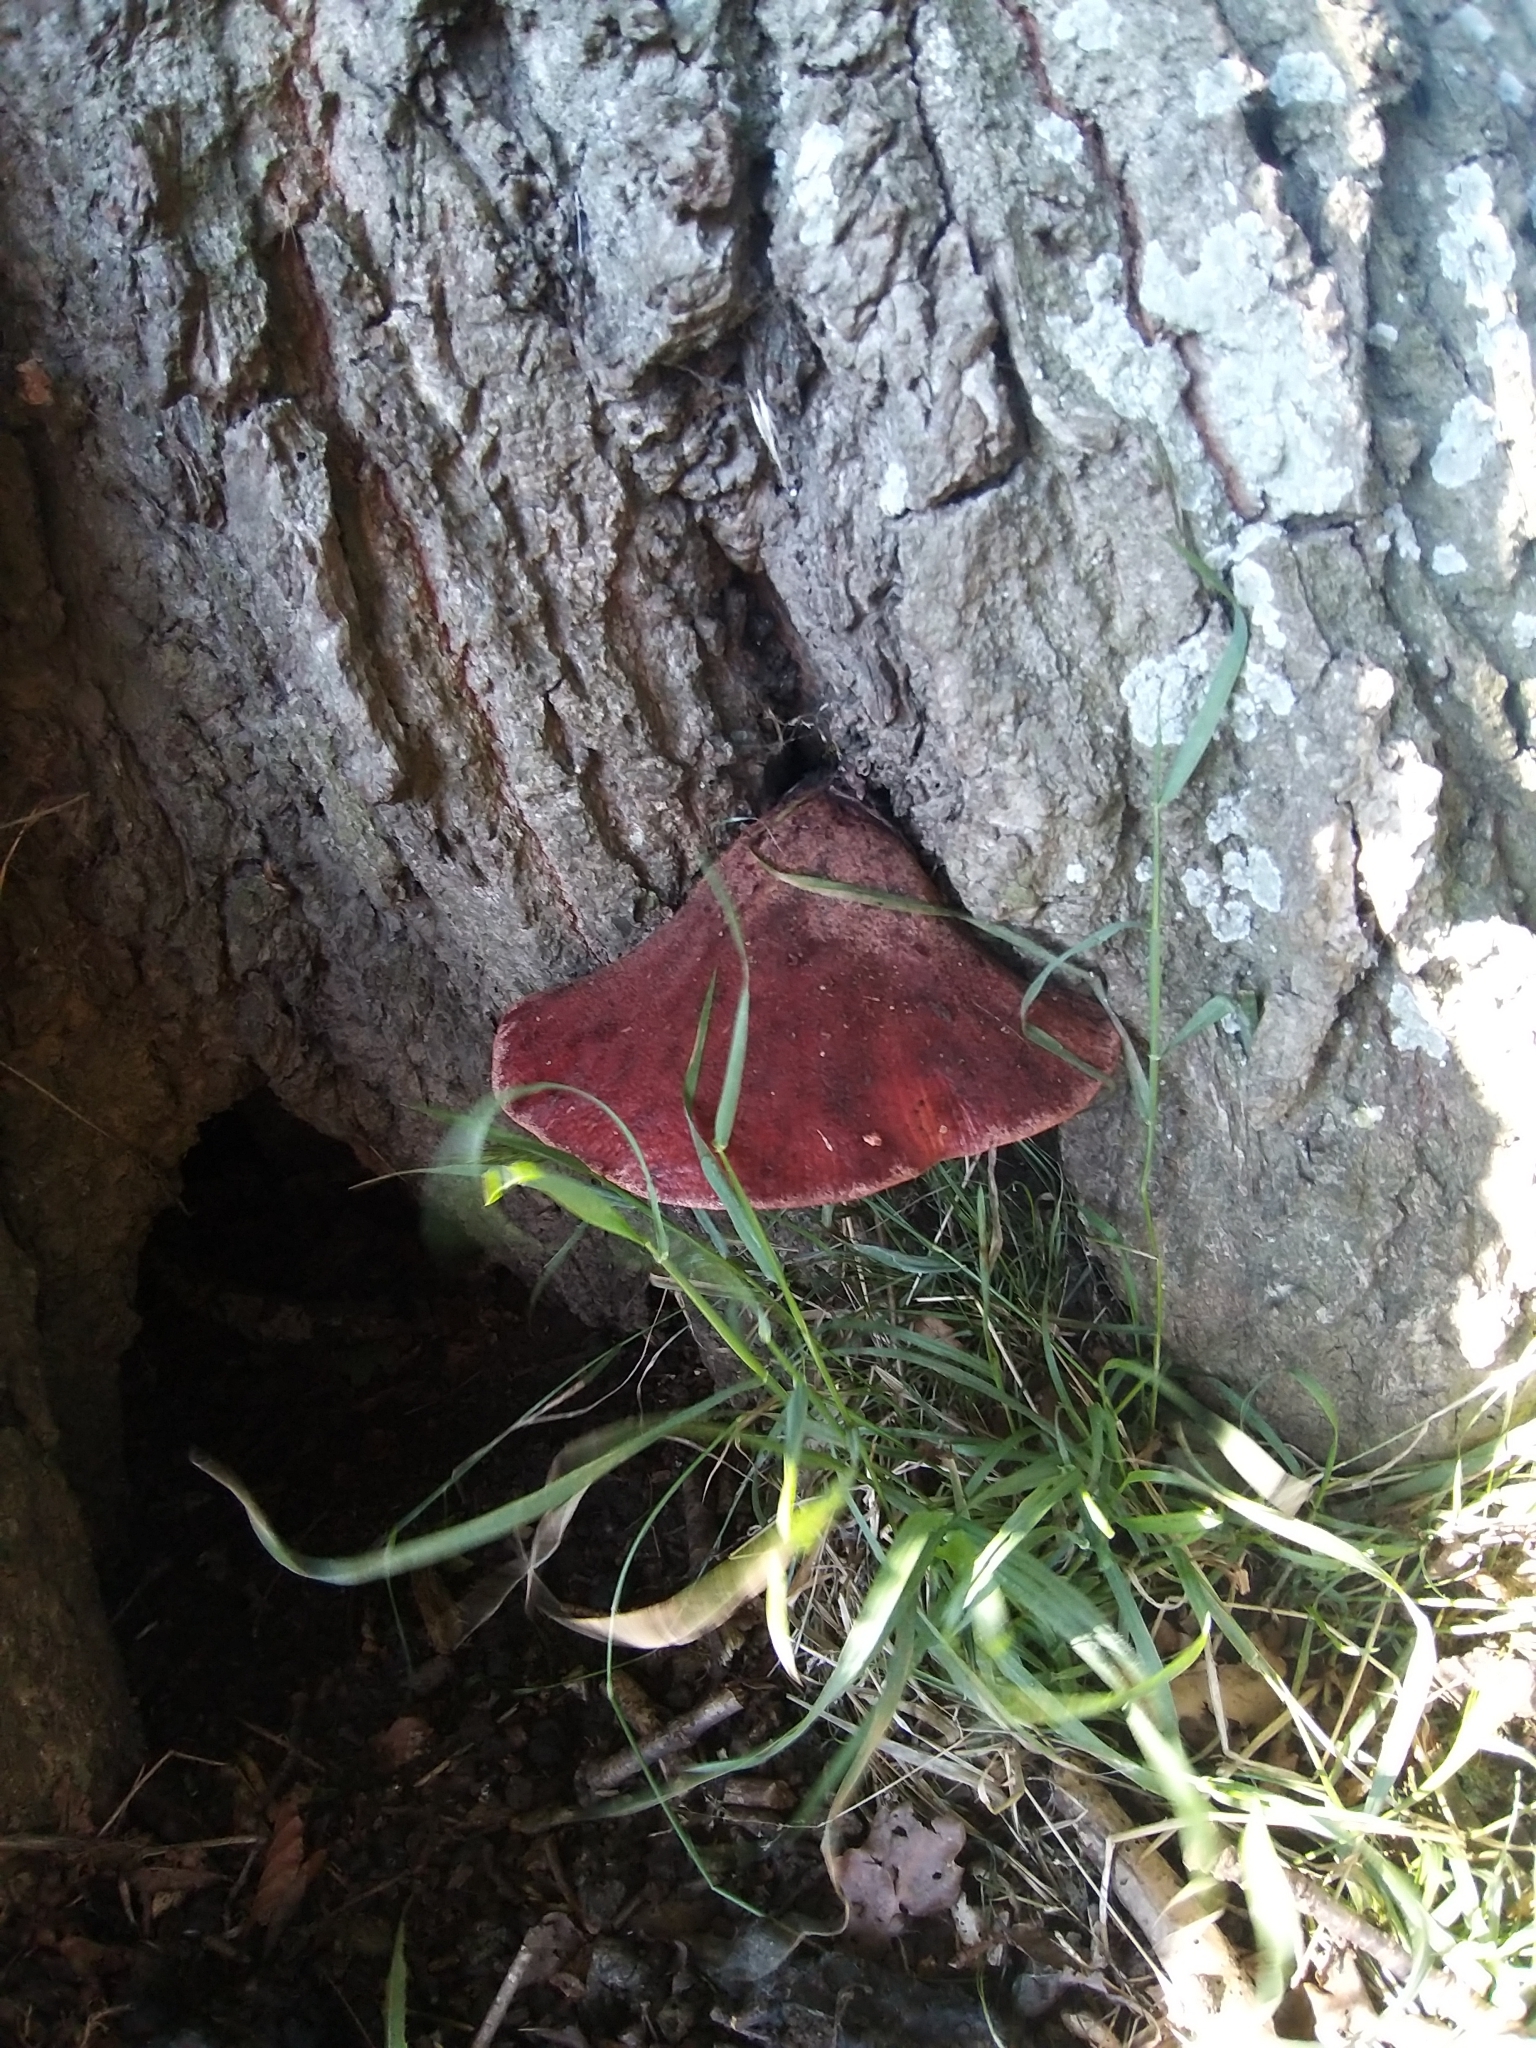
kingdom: Fungi
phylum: Basidiomycota
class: Agaricomycetes
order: Agaricales
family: Fistulinaceae
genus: Fistulina
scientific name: Fistulina hepatica
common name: Beef-steak fungus
